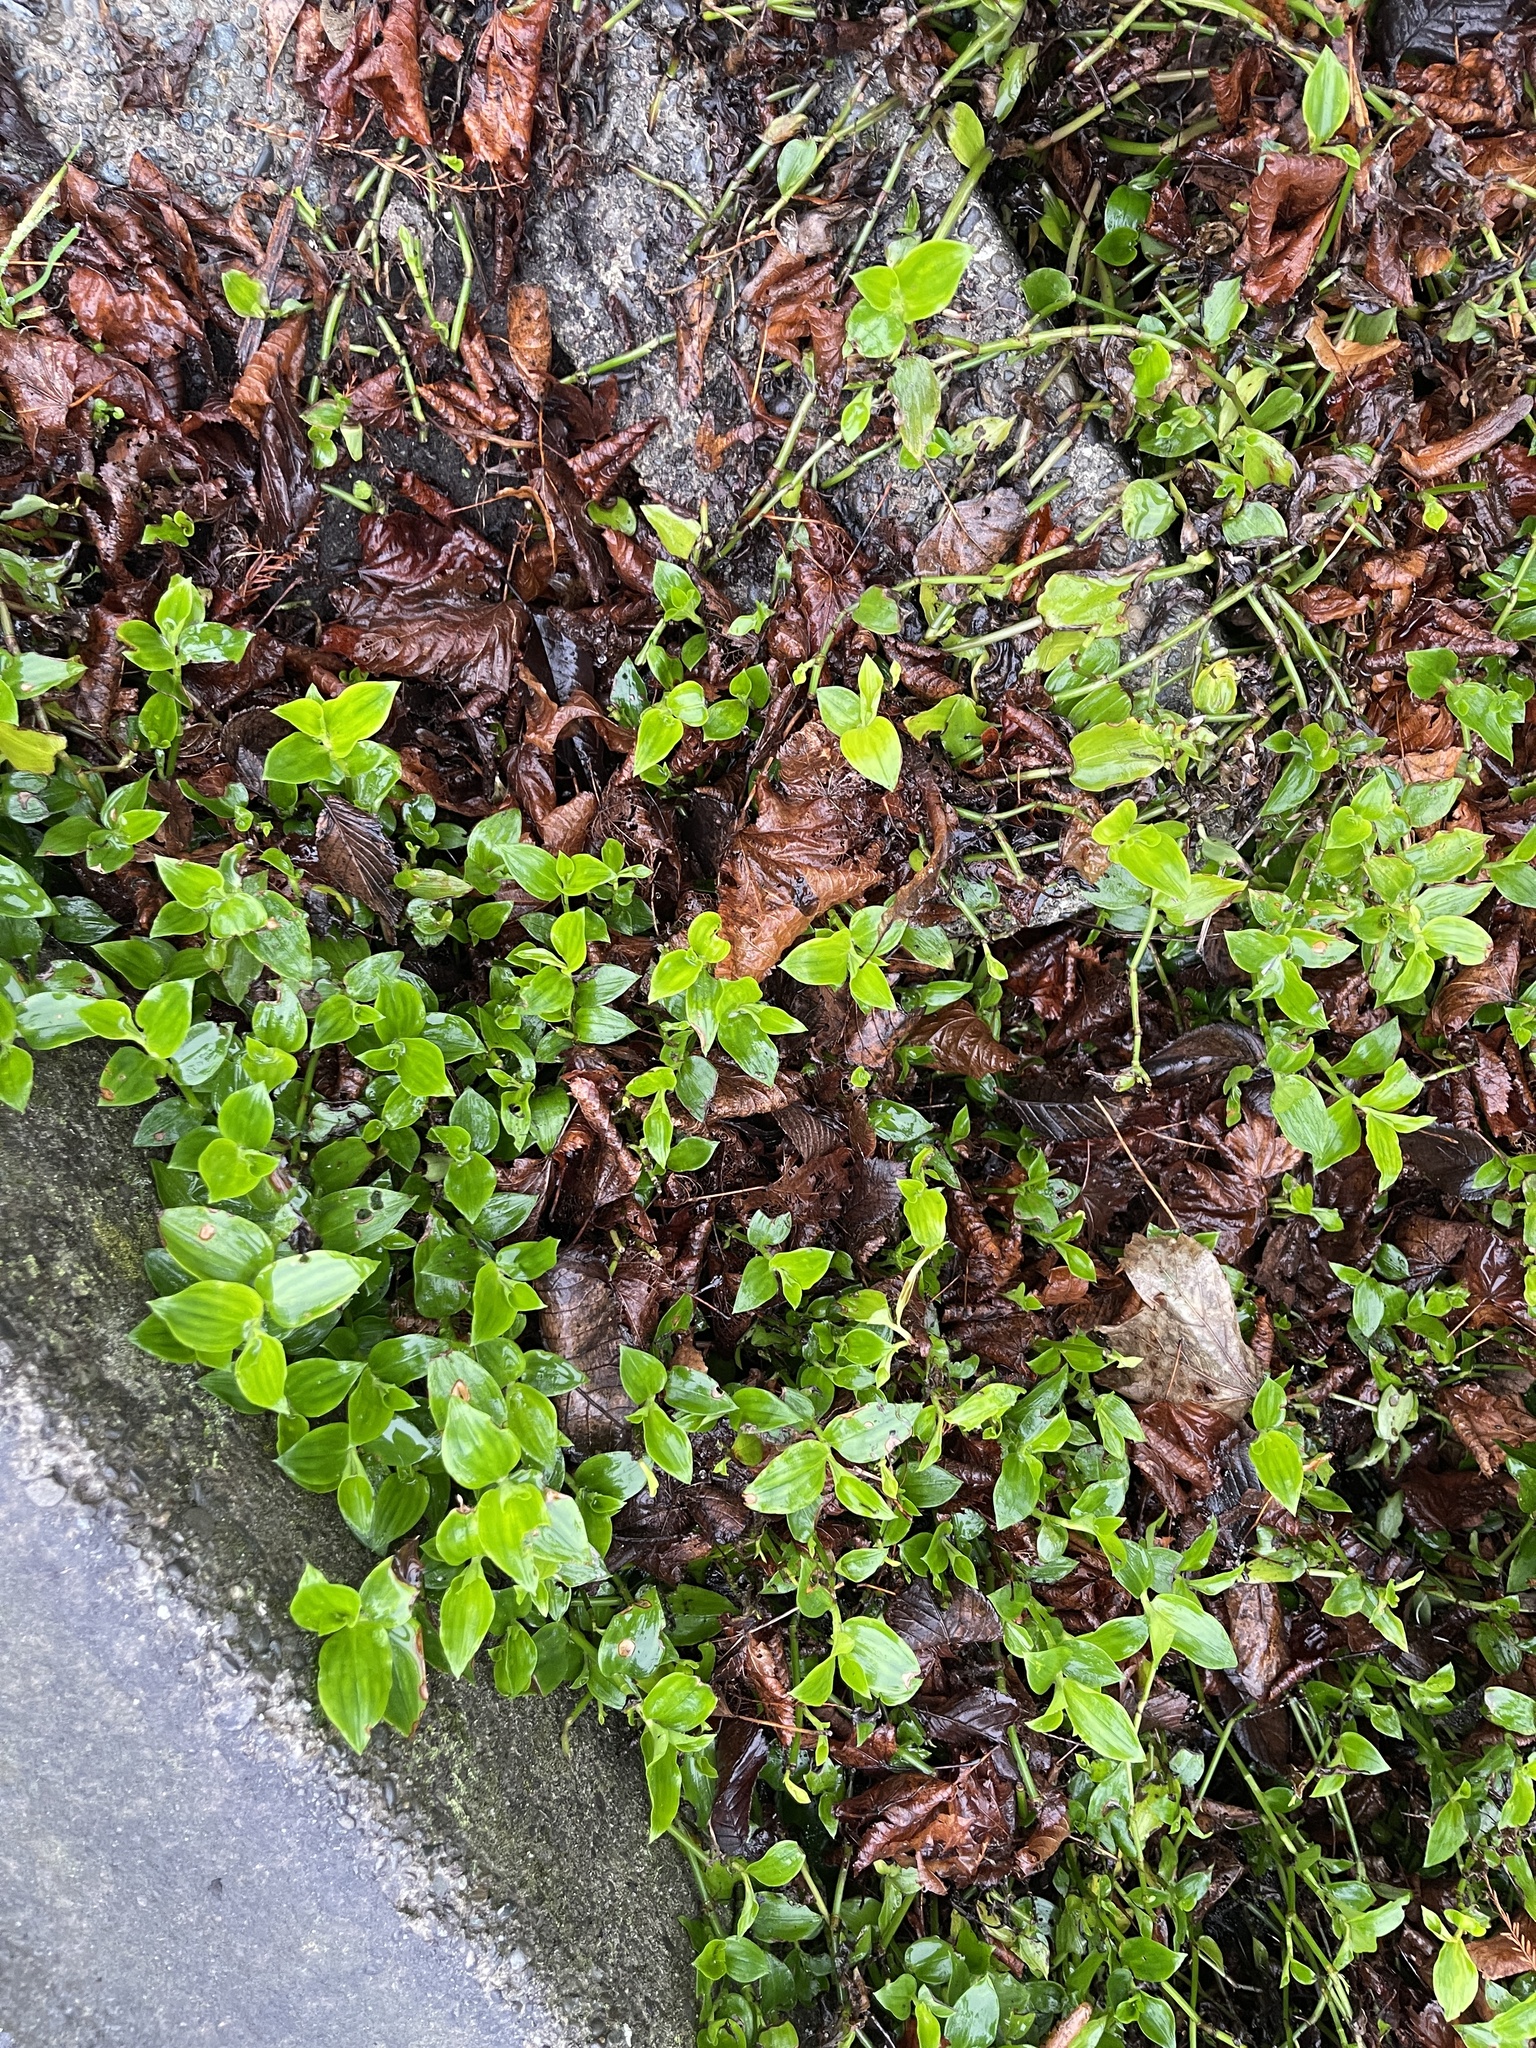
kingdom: Plantae
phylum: Tracheophyta
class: Liliopsida
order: Commelinales
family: Commelinaceae
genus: Tradescantia
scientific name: Tradescantia fluminensis
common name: Wandering-jew
